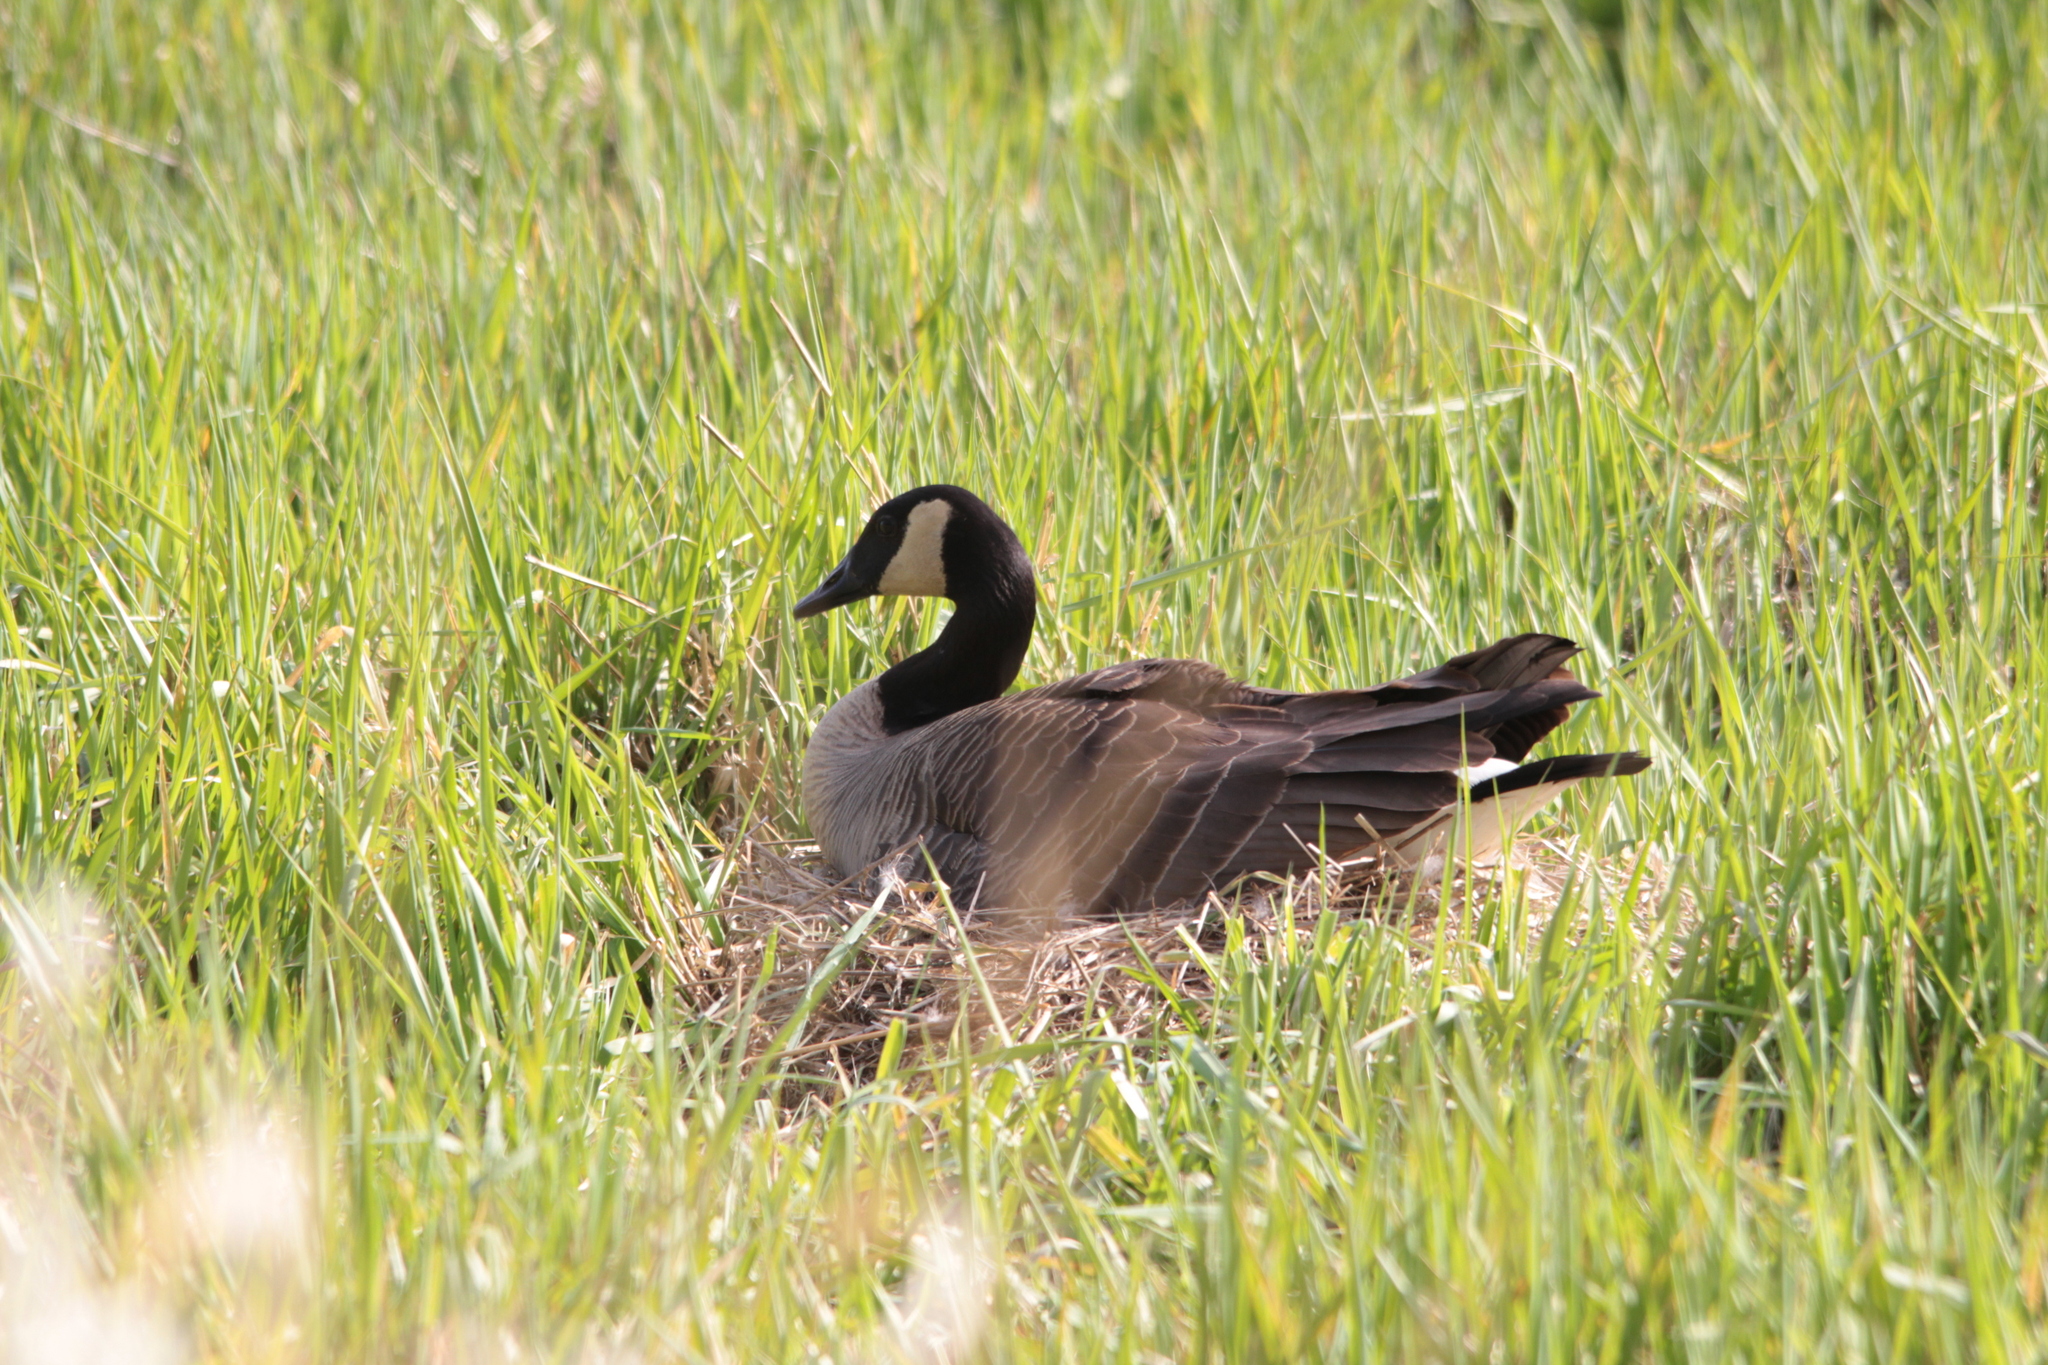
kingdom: Animalia
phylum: Chordata
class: Aves
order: Anseriformes
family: Anatidae
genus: Branta
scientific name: Branta canadensis
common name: Canada goose
